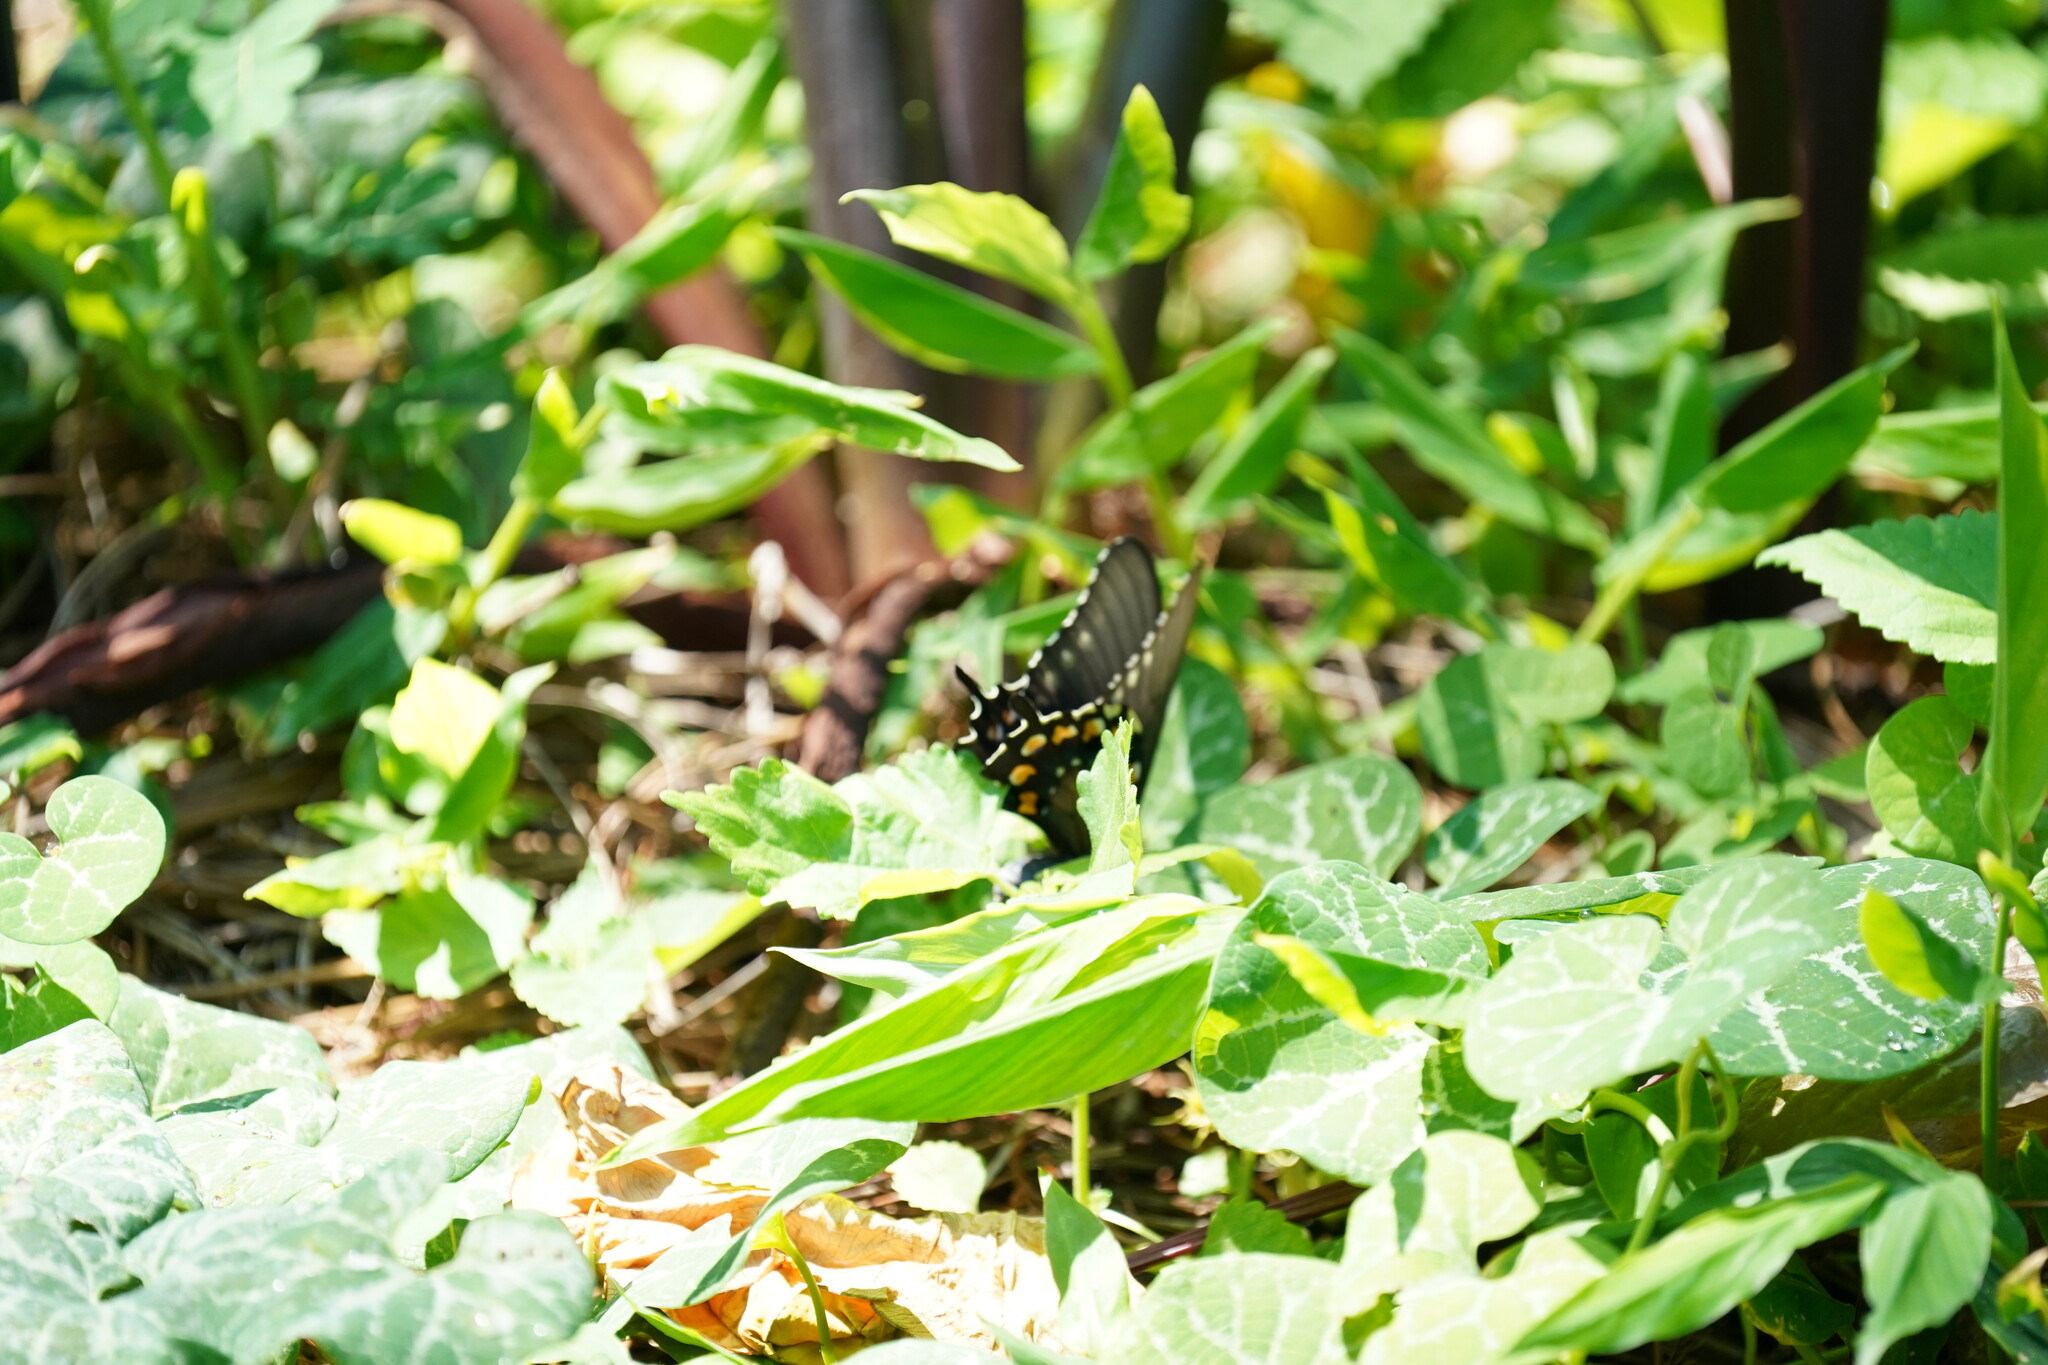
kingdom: Animalia
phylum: Arthropoda
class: Insecta
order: Lepidoptera
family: Papilionidae
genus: Battus
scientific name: Battus philenor
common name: Pipevine swallowtail
